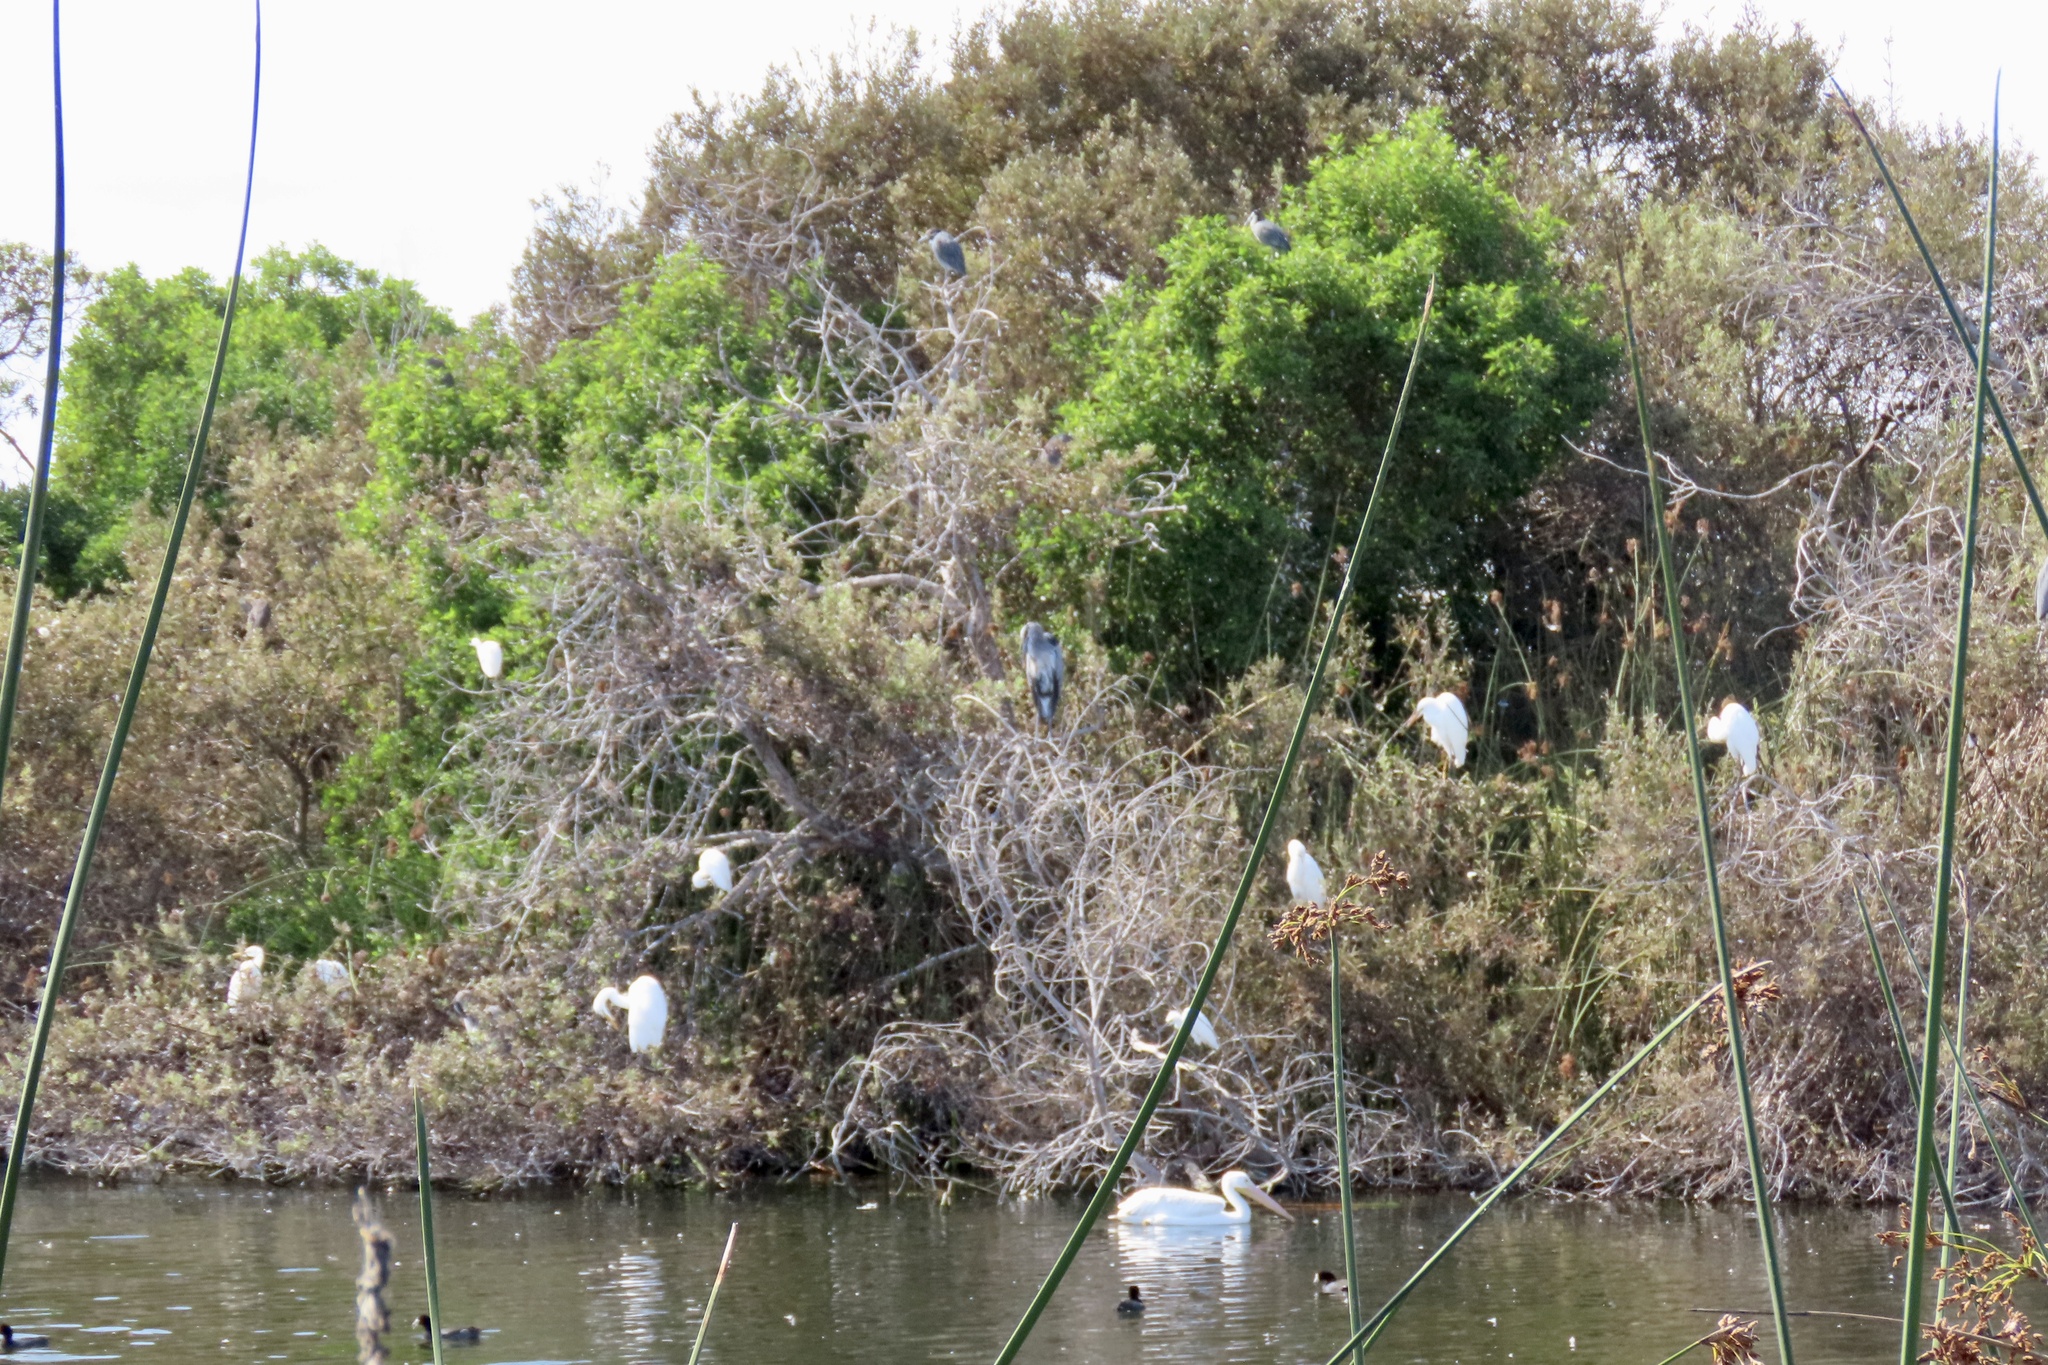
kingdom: Animalia
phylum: Chordata
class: Aves
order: Pelecaniformes
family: Ardeidae
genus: Ardea
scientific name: Ardea alba
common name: Great egret
